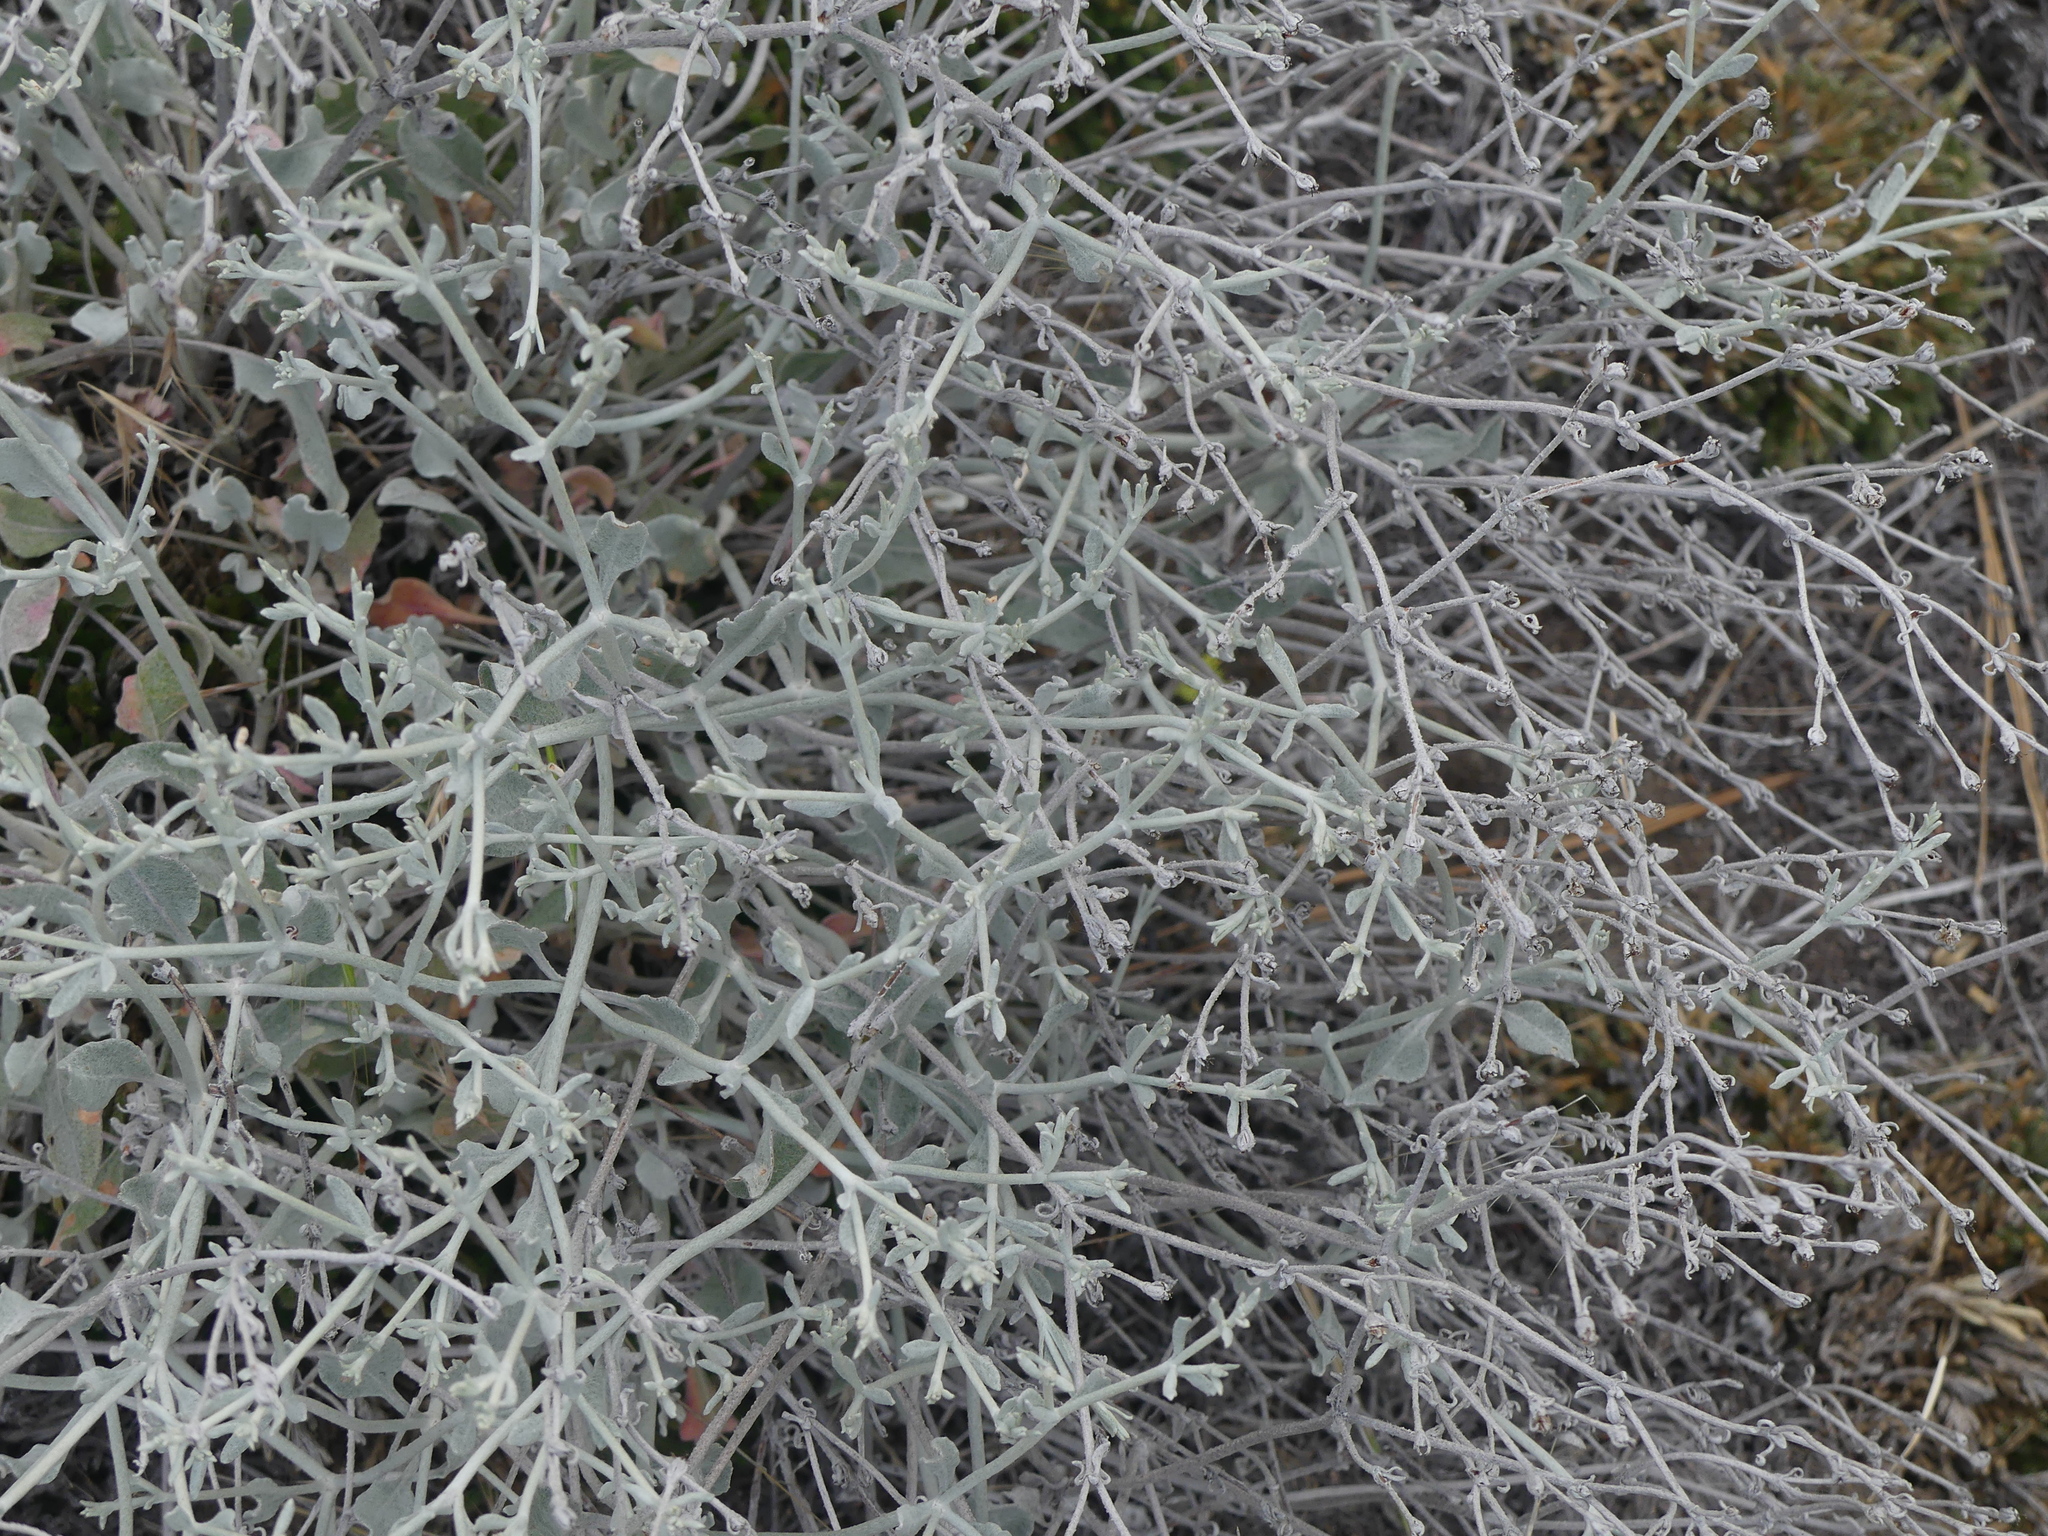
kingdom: Plantae
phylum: Tracheophyta
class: Magnoliopsida
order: Caryophyllales
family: Polygonaceae
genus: Eriogonum
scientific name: Eriogonum niveum
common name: Snow wild buckwheat
